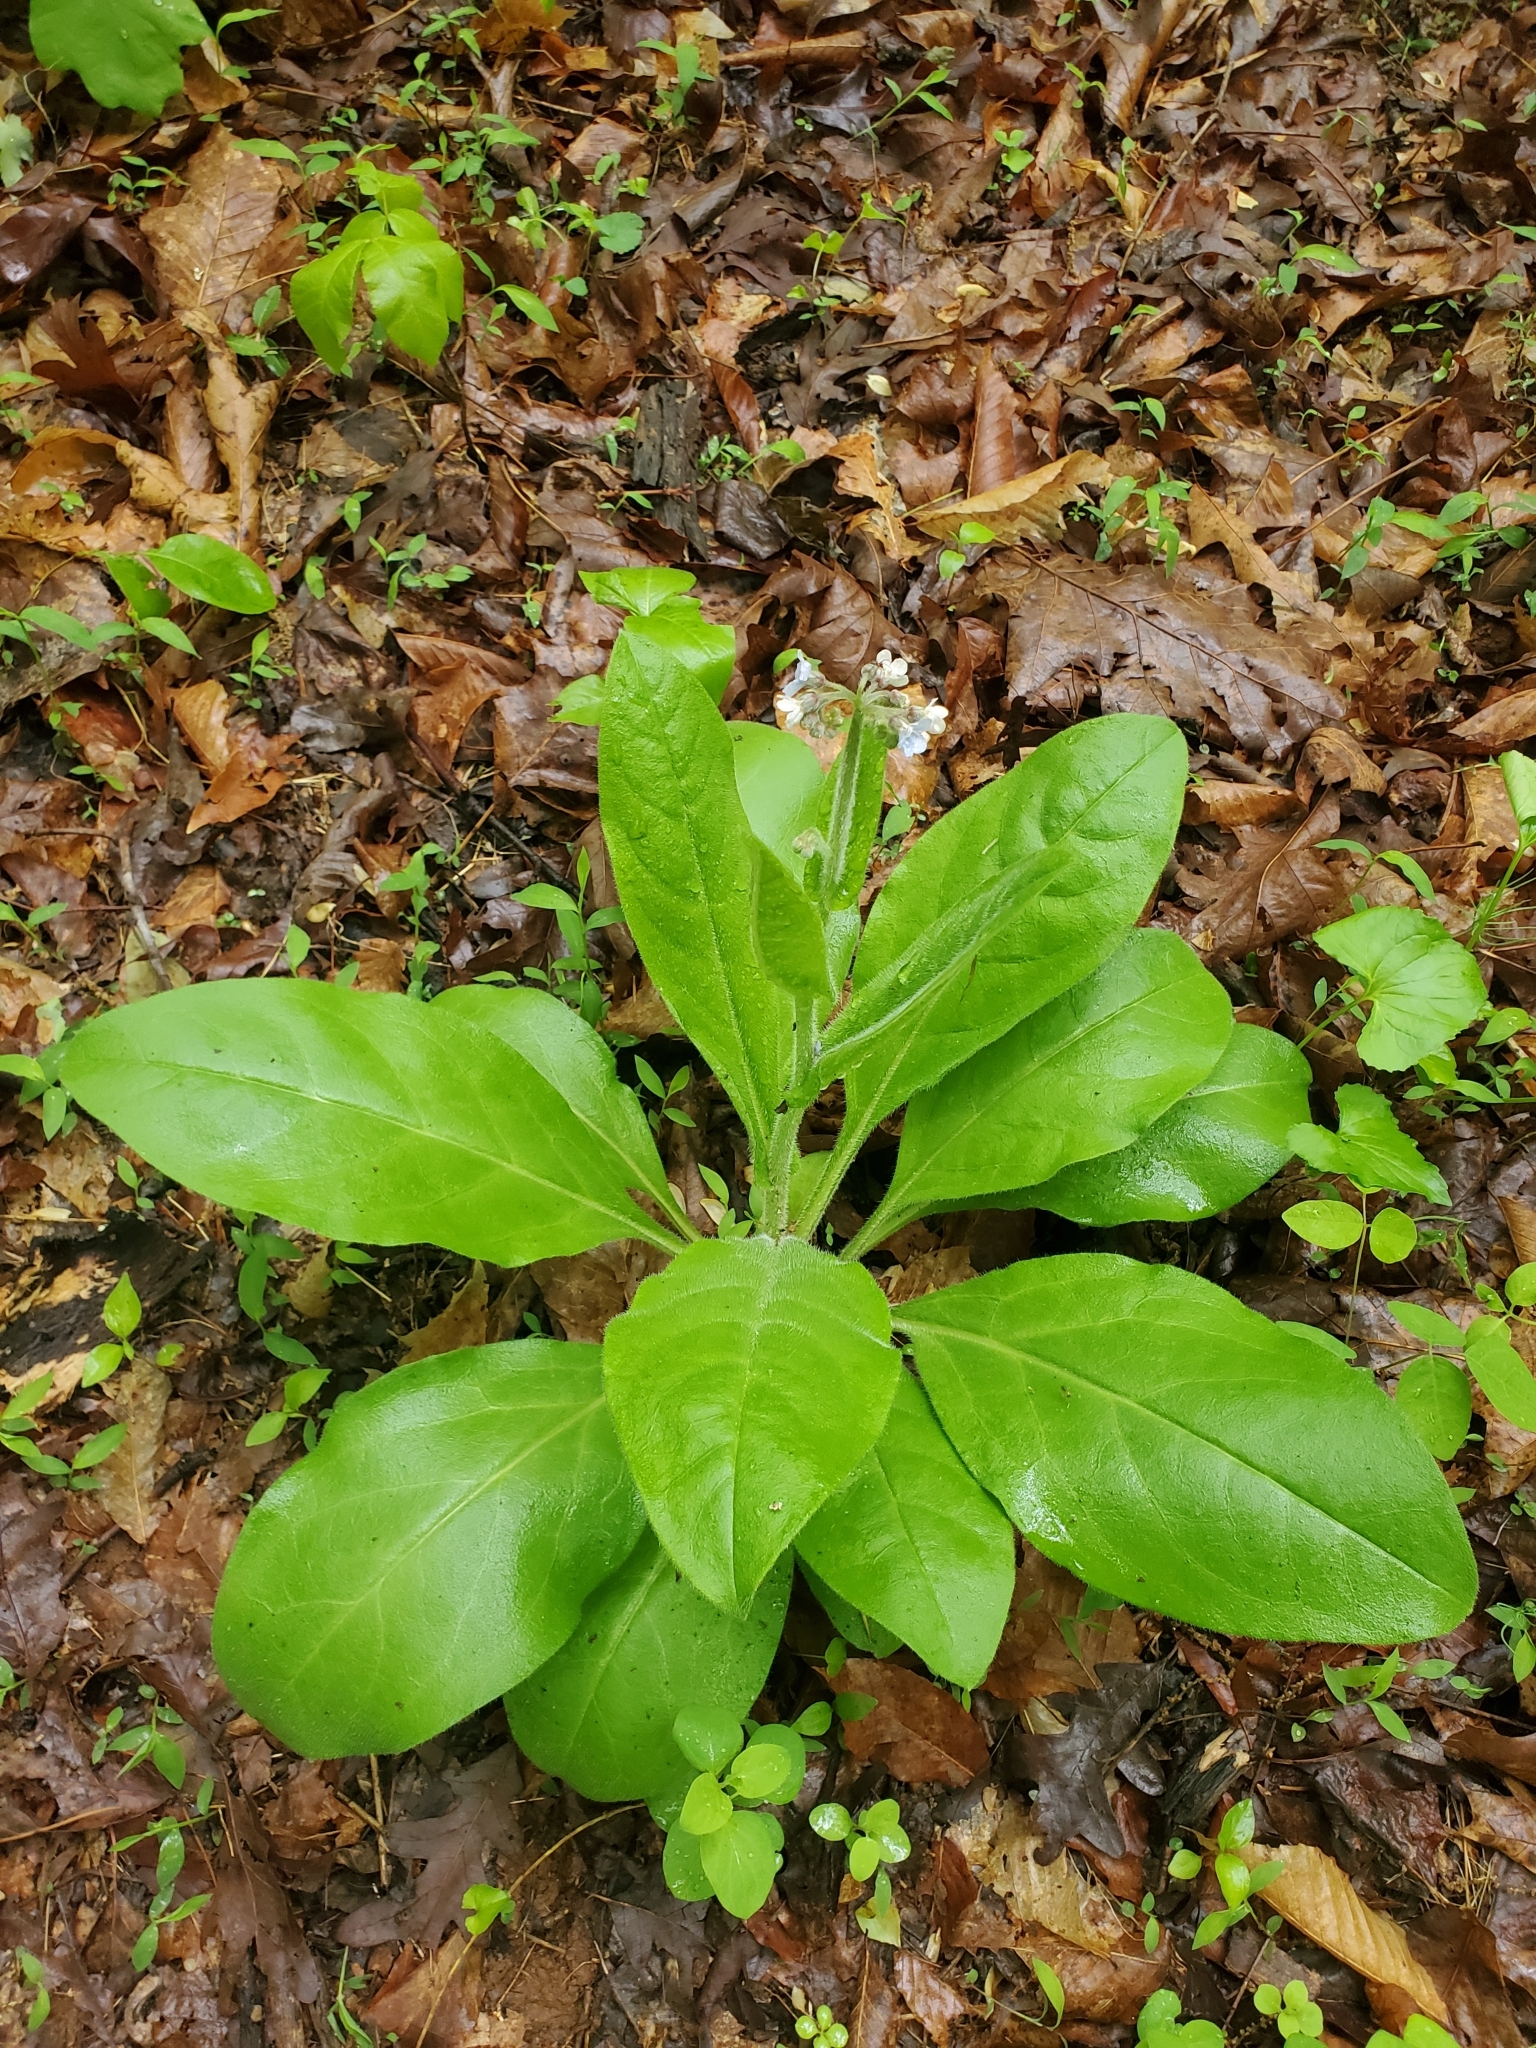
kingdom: Plantae
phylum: Tracheophyta
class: Magnoliopsida
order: Boraginales
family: Boraginaceae
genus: Andersonglossum
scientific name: Andersonglossum virginianum
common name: Wild comfrey
